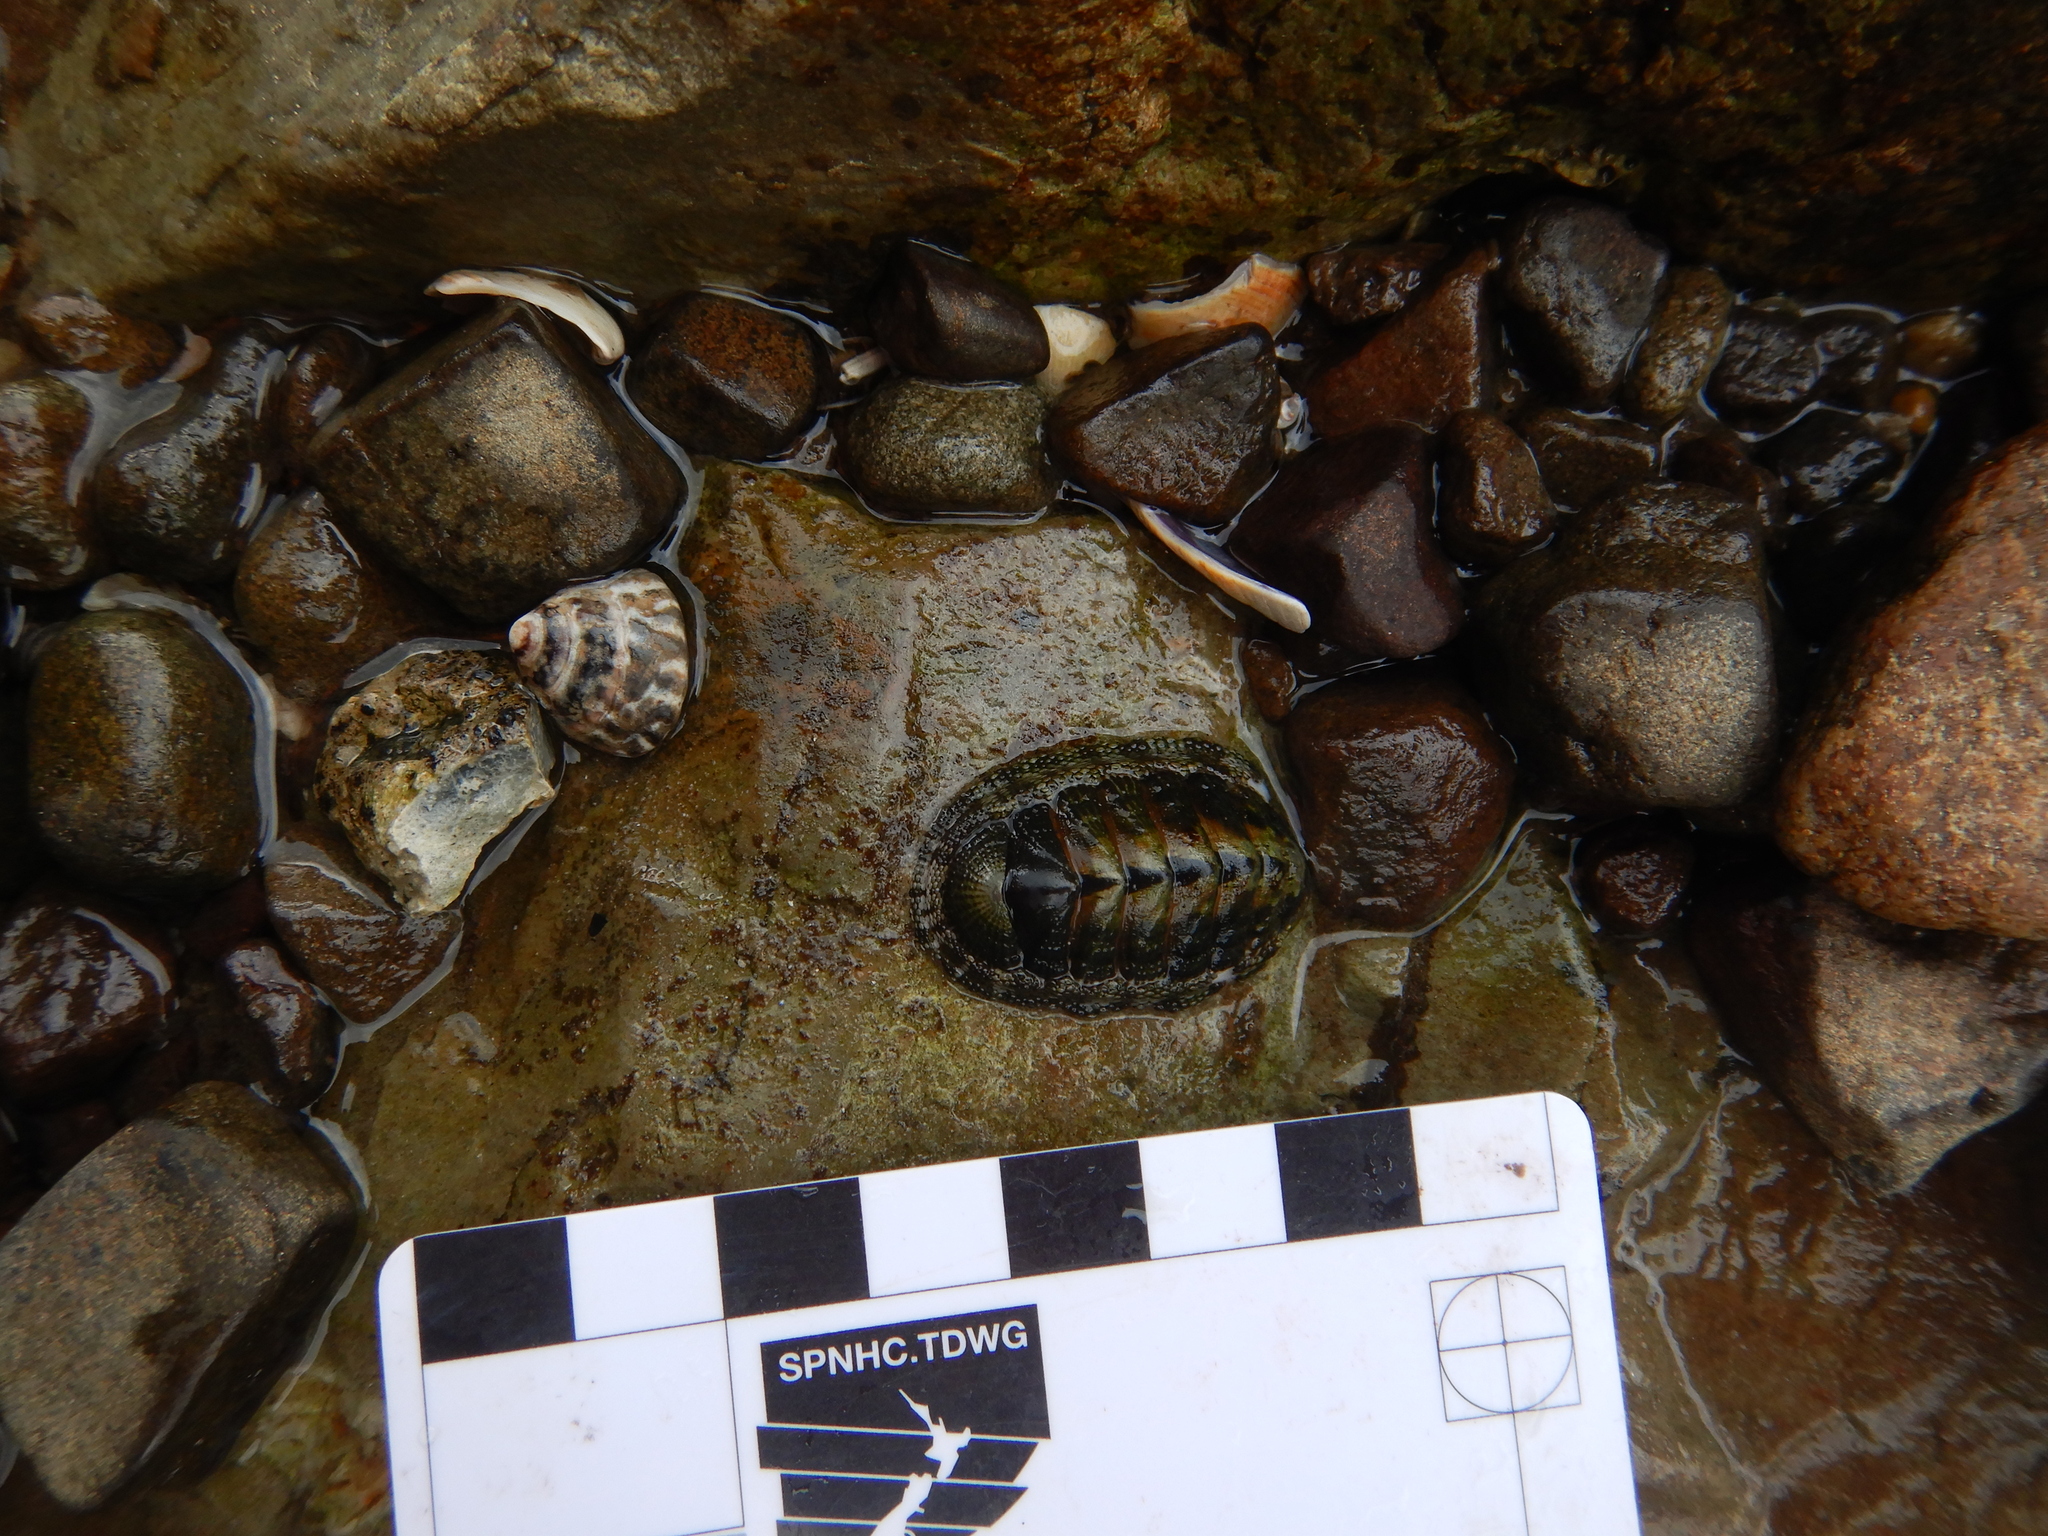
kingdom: Animalia
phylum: Mollusca
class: Polyplacophora
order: Chitonida
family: Chitonidae
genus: Sypharochiton
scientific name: Sypharochiton pelliserpentis
